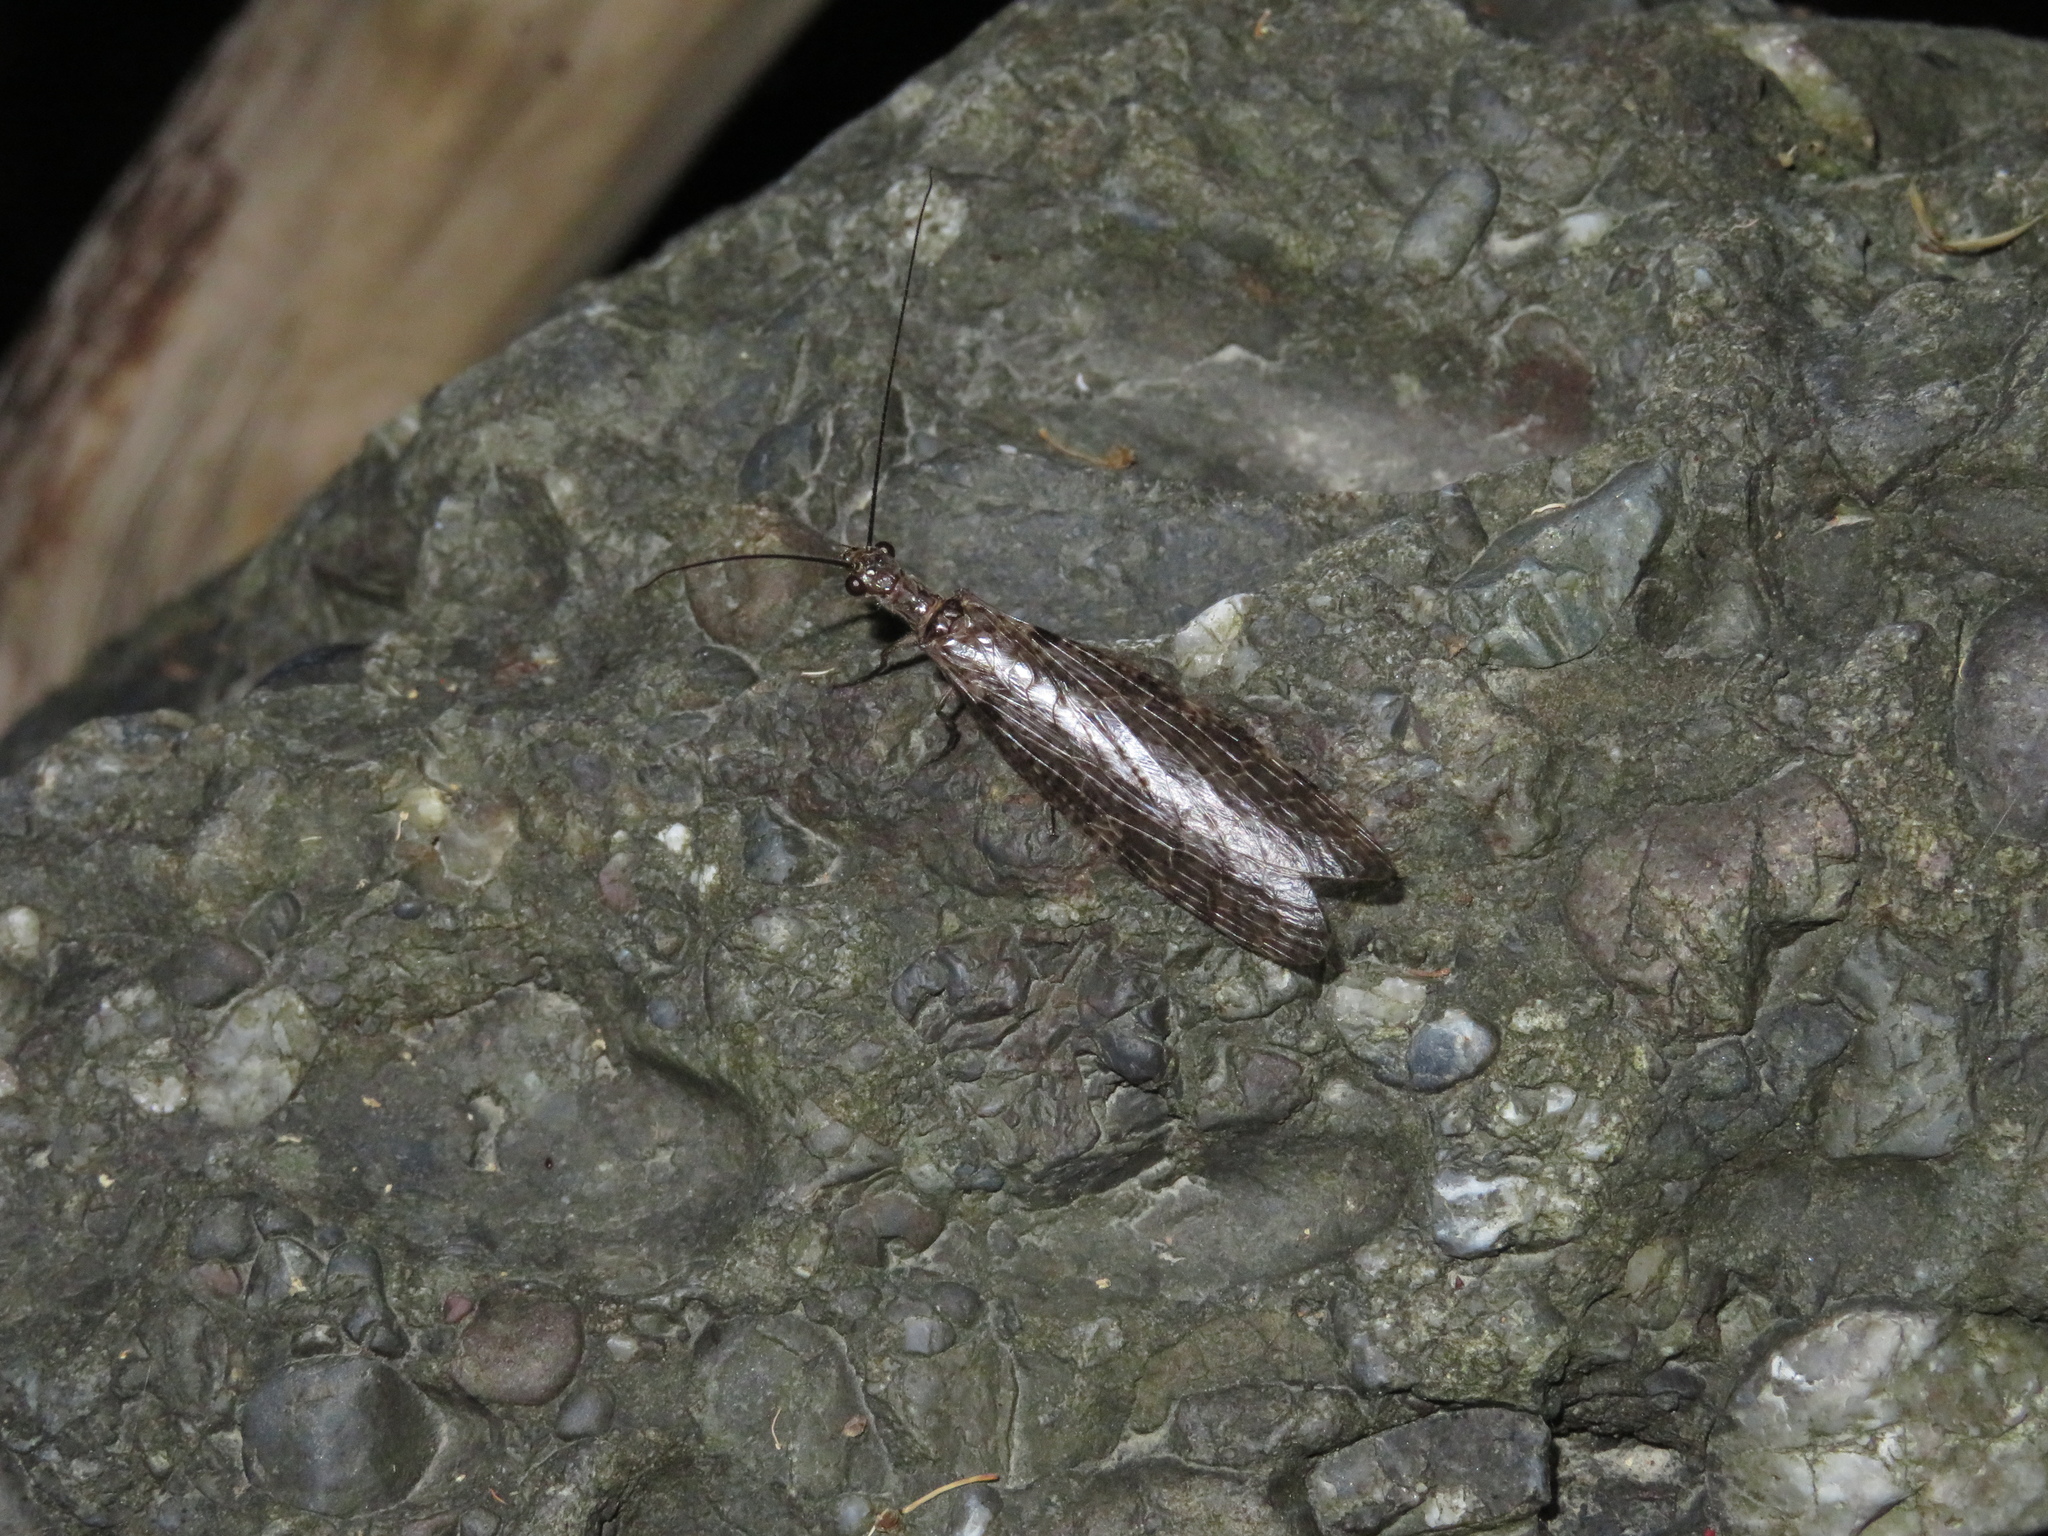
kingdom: Animalia
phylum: Arthropoda
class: Insecta
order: Megaloptera
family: Corydalidae
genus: Archichauliodes
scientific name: Archichauliodes diversus
